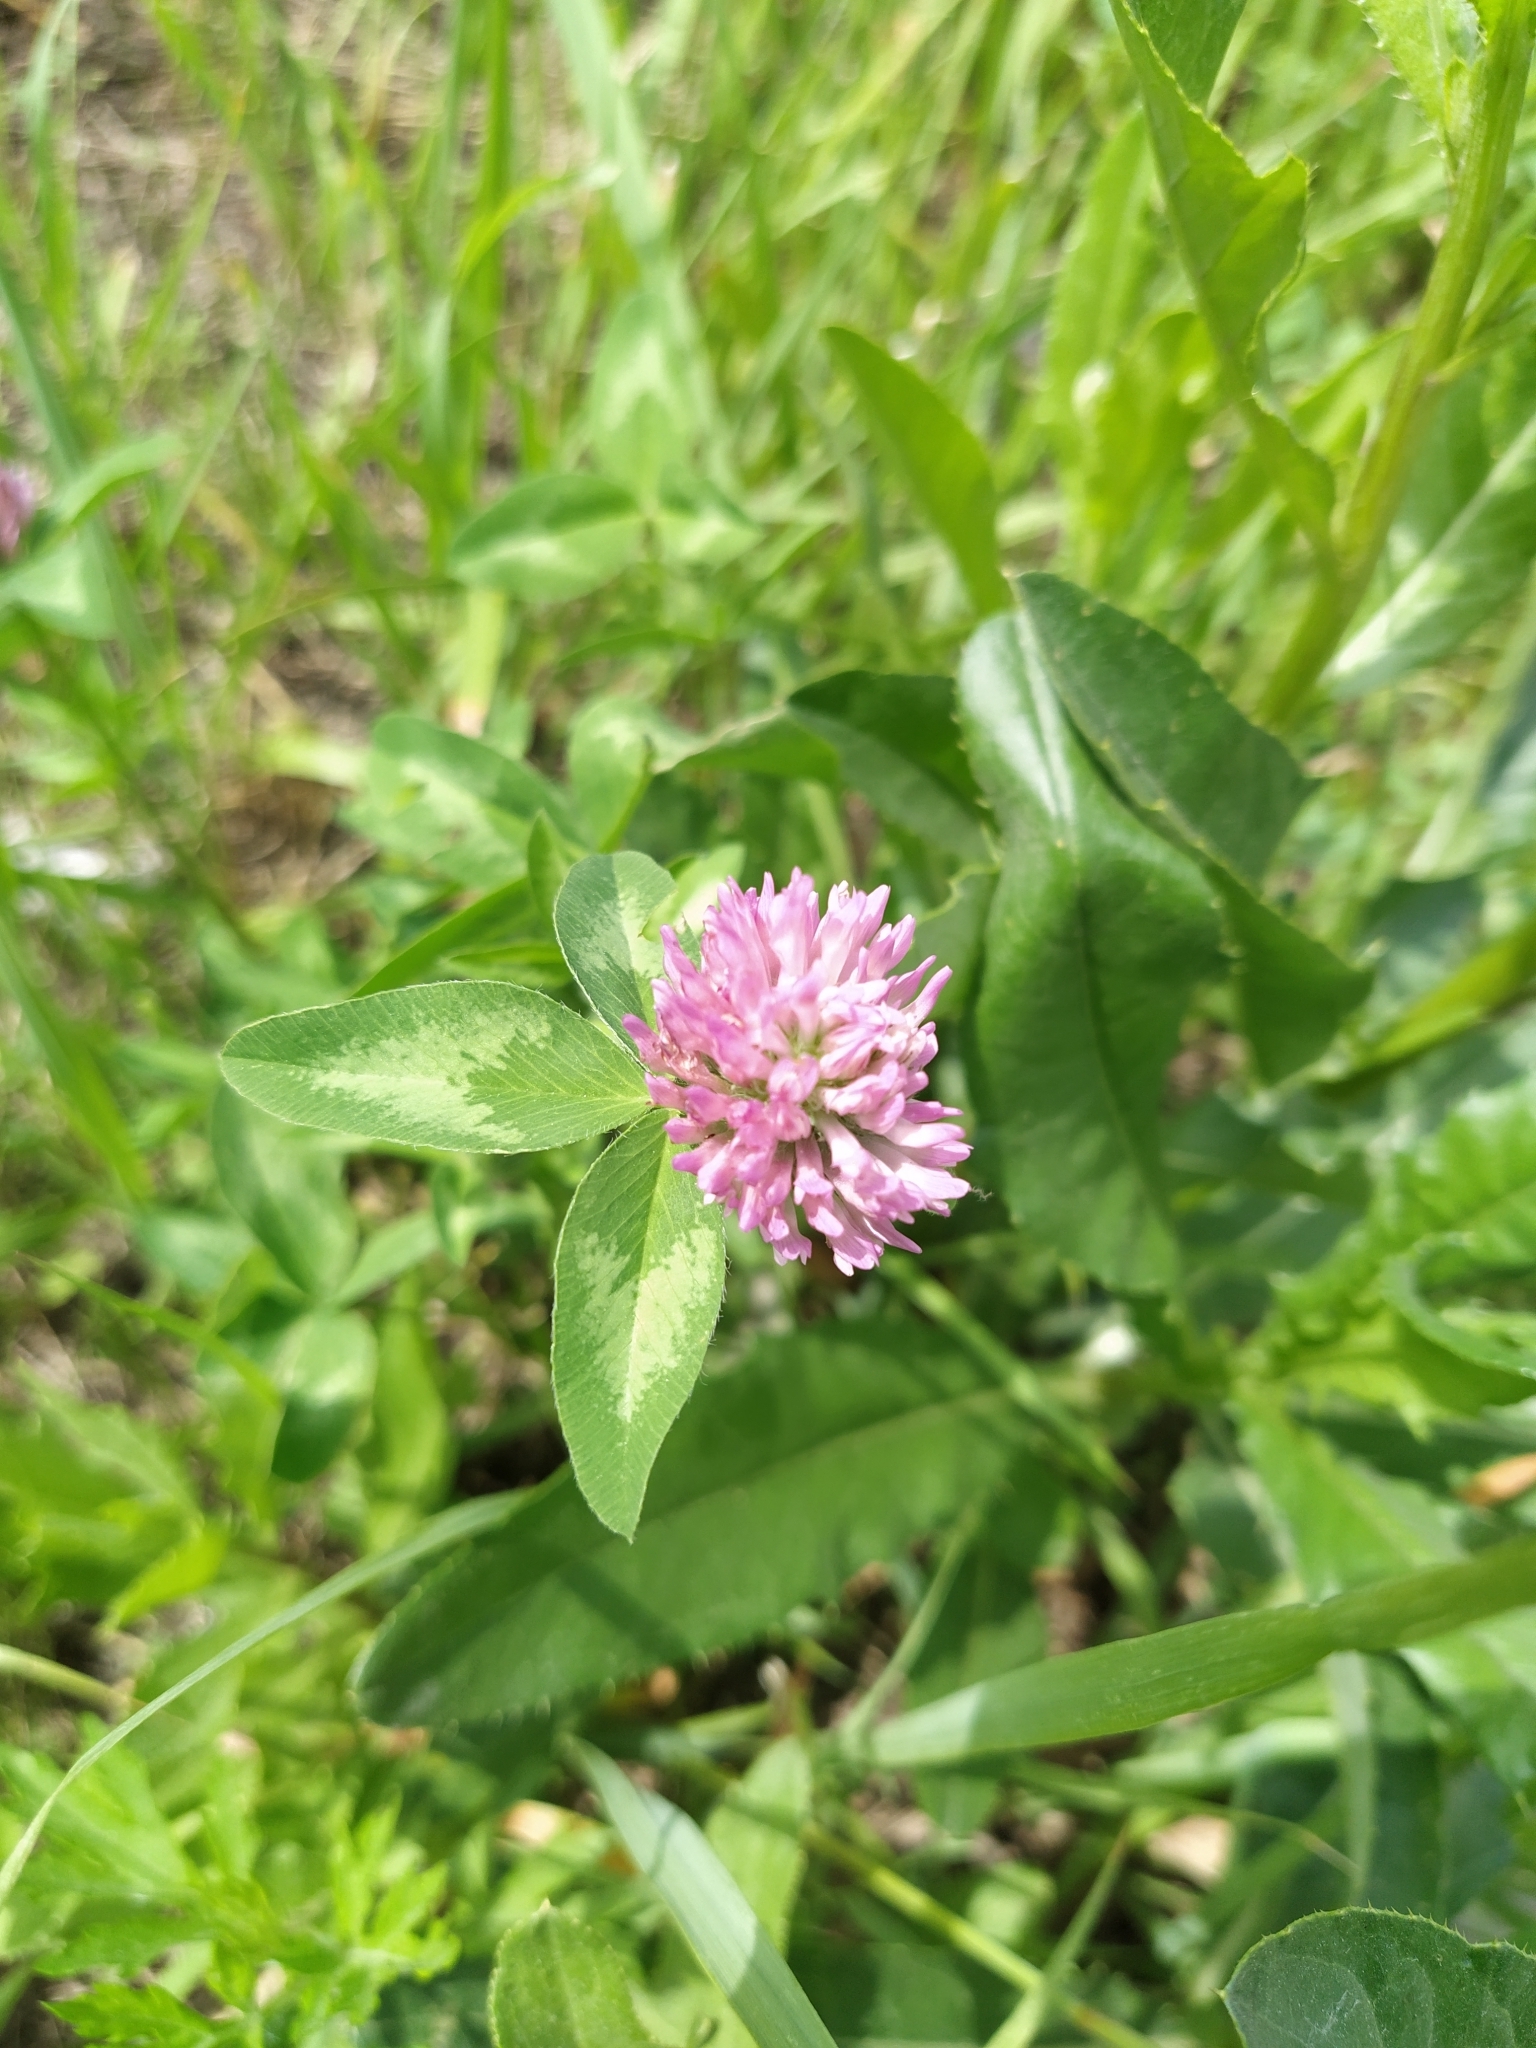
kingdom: Plantae
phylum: Tracheophyta
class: Magnoliopsida
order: Fabales
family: Fabaceae
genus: Trifolium
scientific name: Trifolium medium
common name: Zigzag clover
